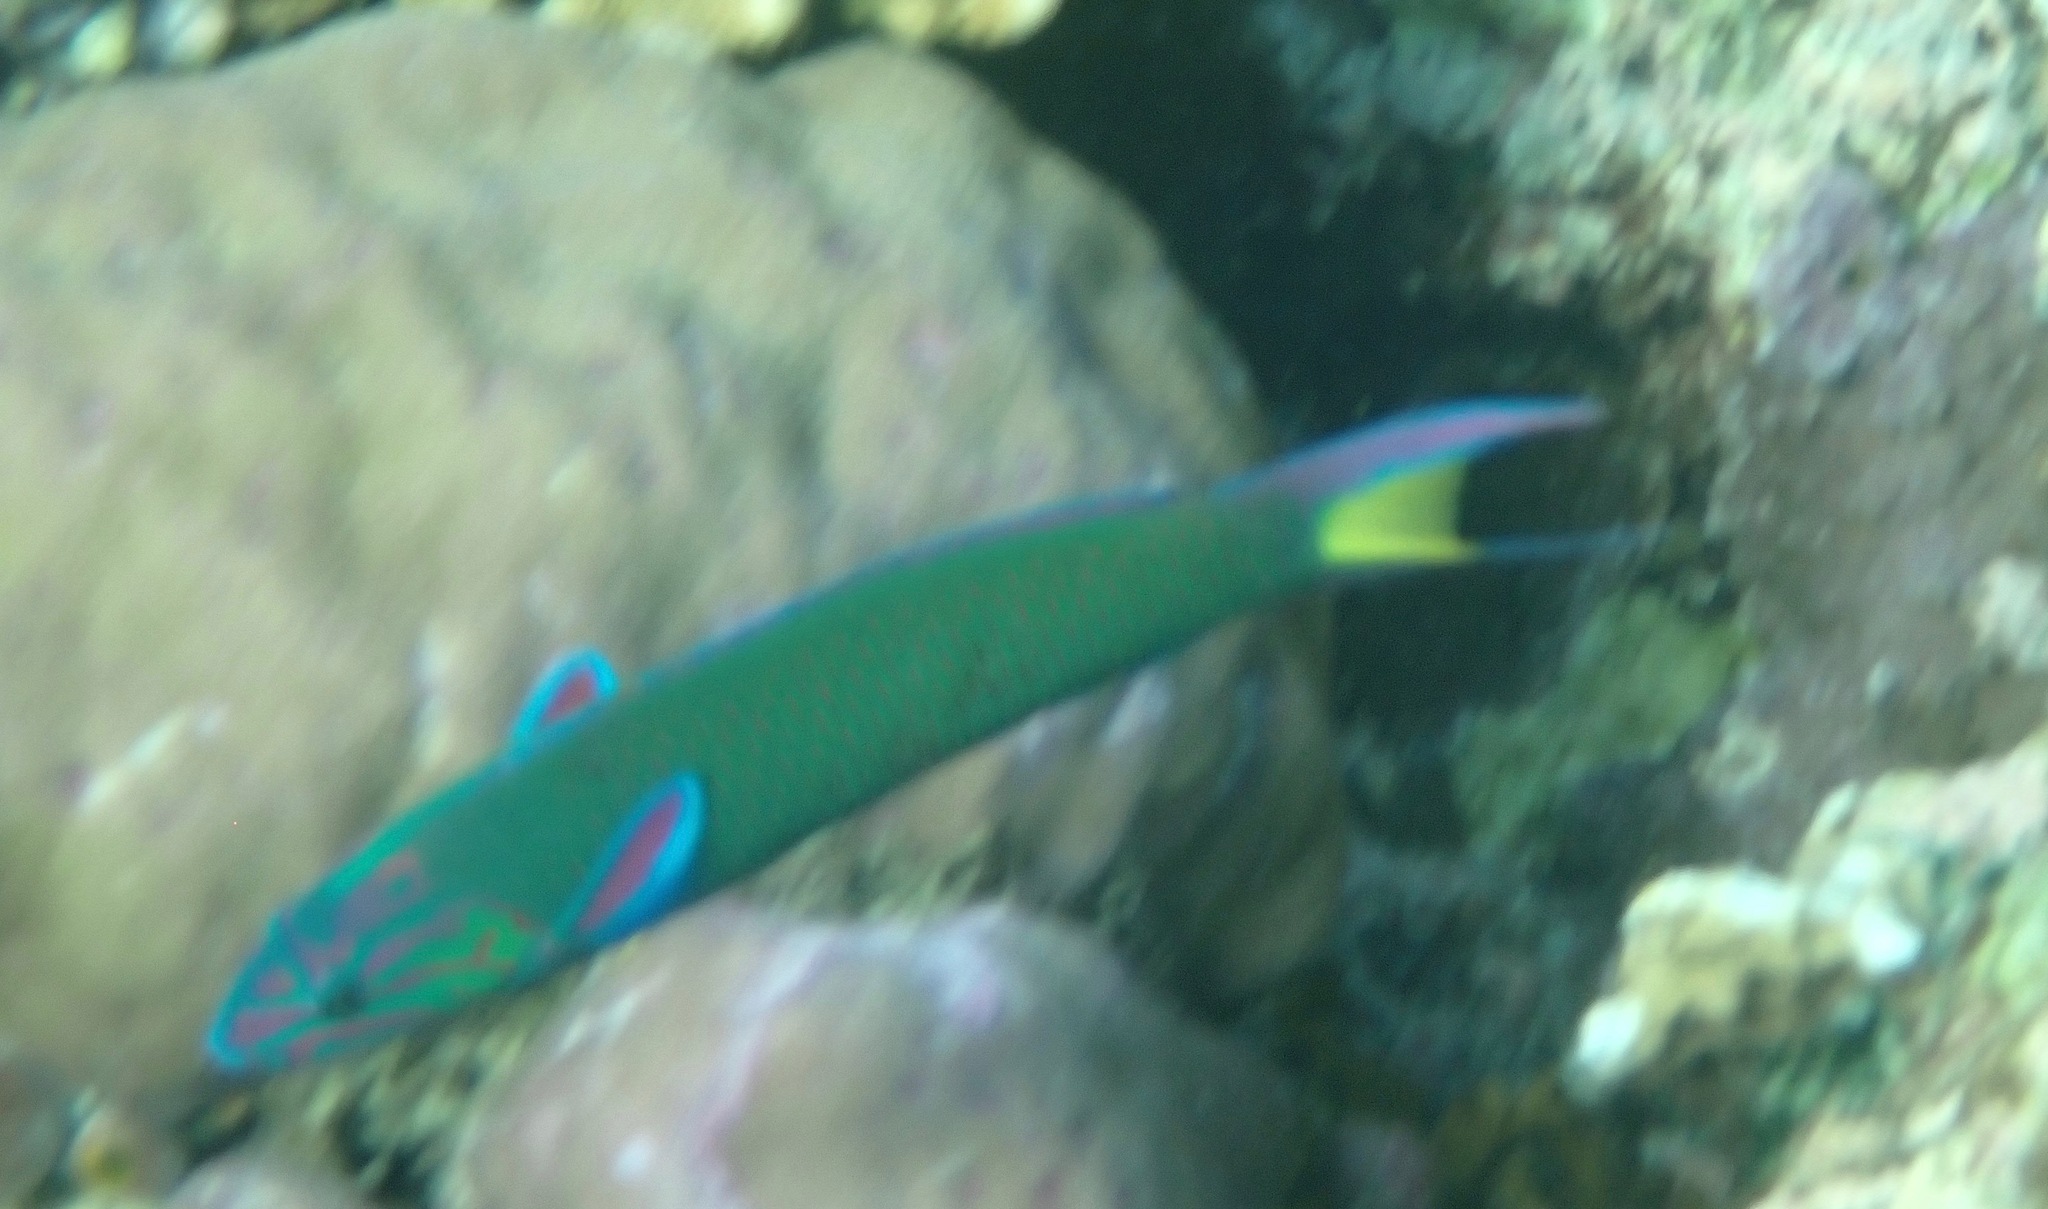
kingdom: Animalia
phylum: Chordata
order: Perciformes
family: Labridae
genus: Thalassoma
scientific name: Thalassoma lunare
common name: Blue wrasse
